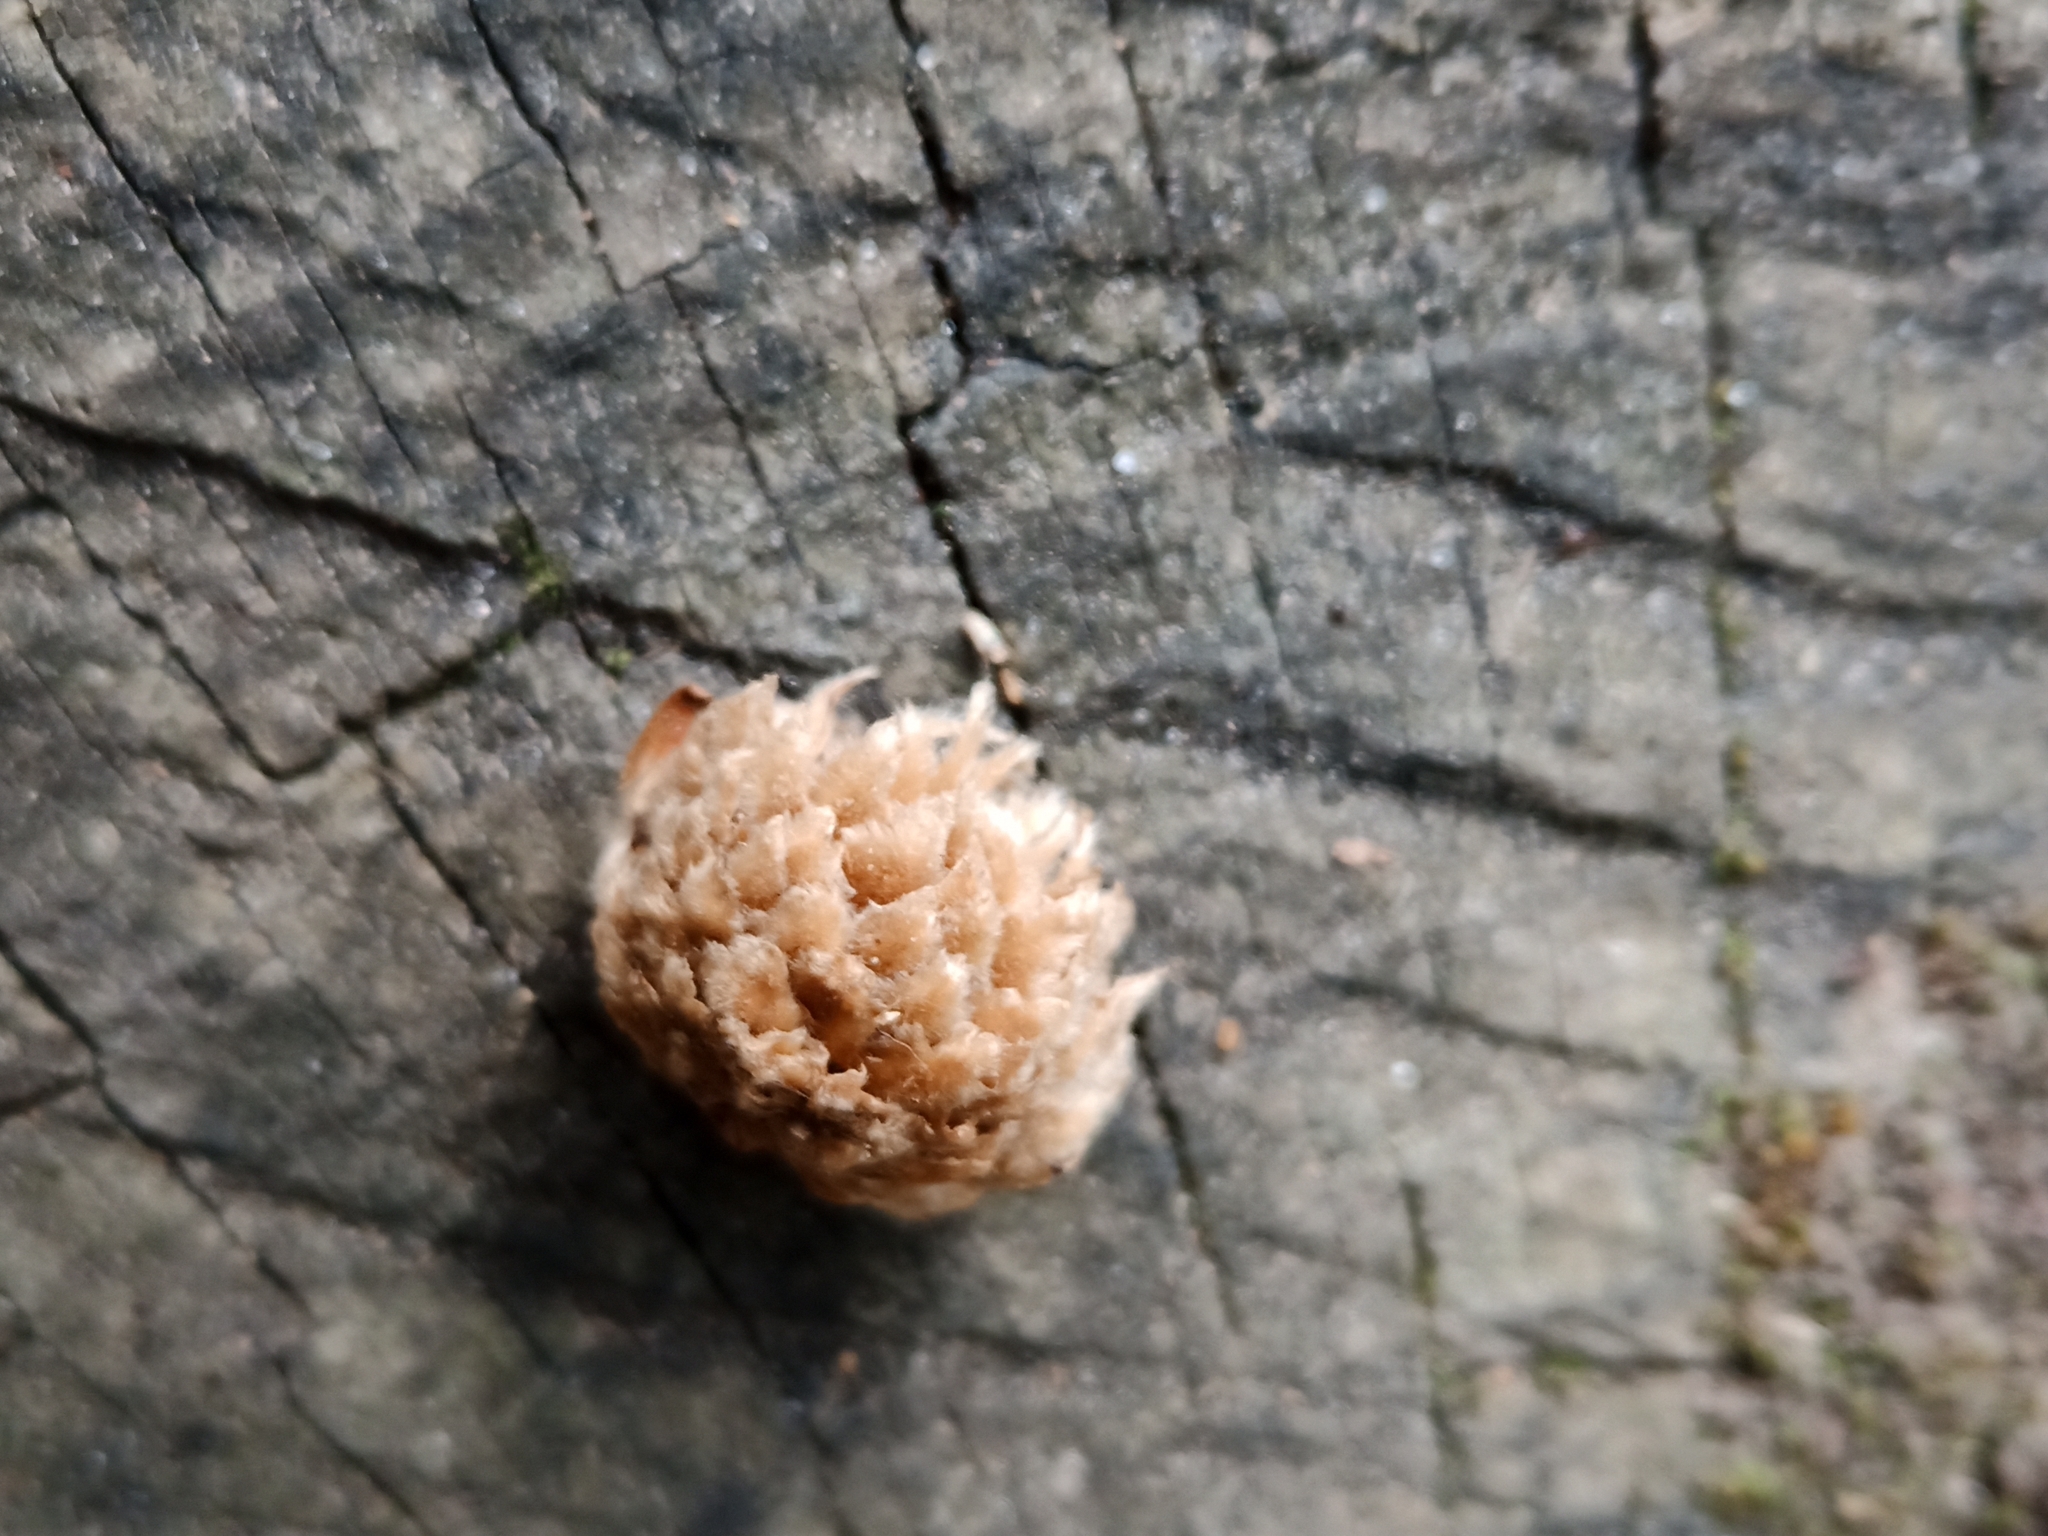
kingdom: Animalia
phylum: Arthropoda
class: Insecta
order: Hymenoptera
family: Cynipidae
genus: Andricus
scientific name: Andricus foecundatrix
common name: Artichoke gall
